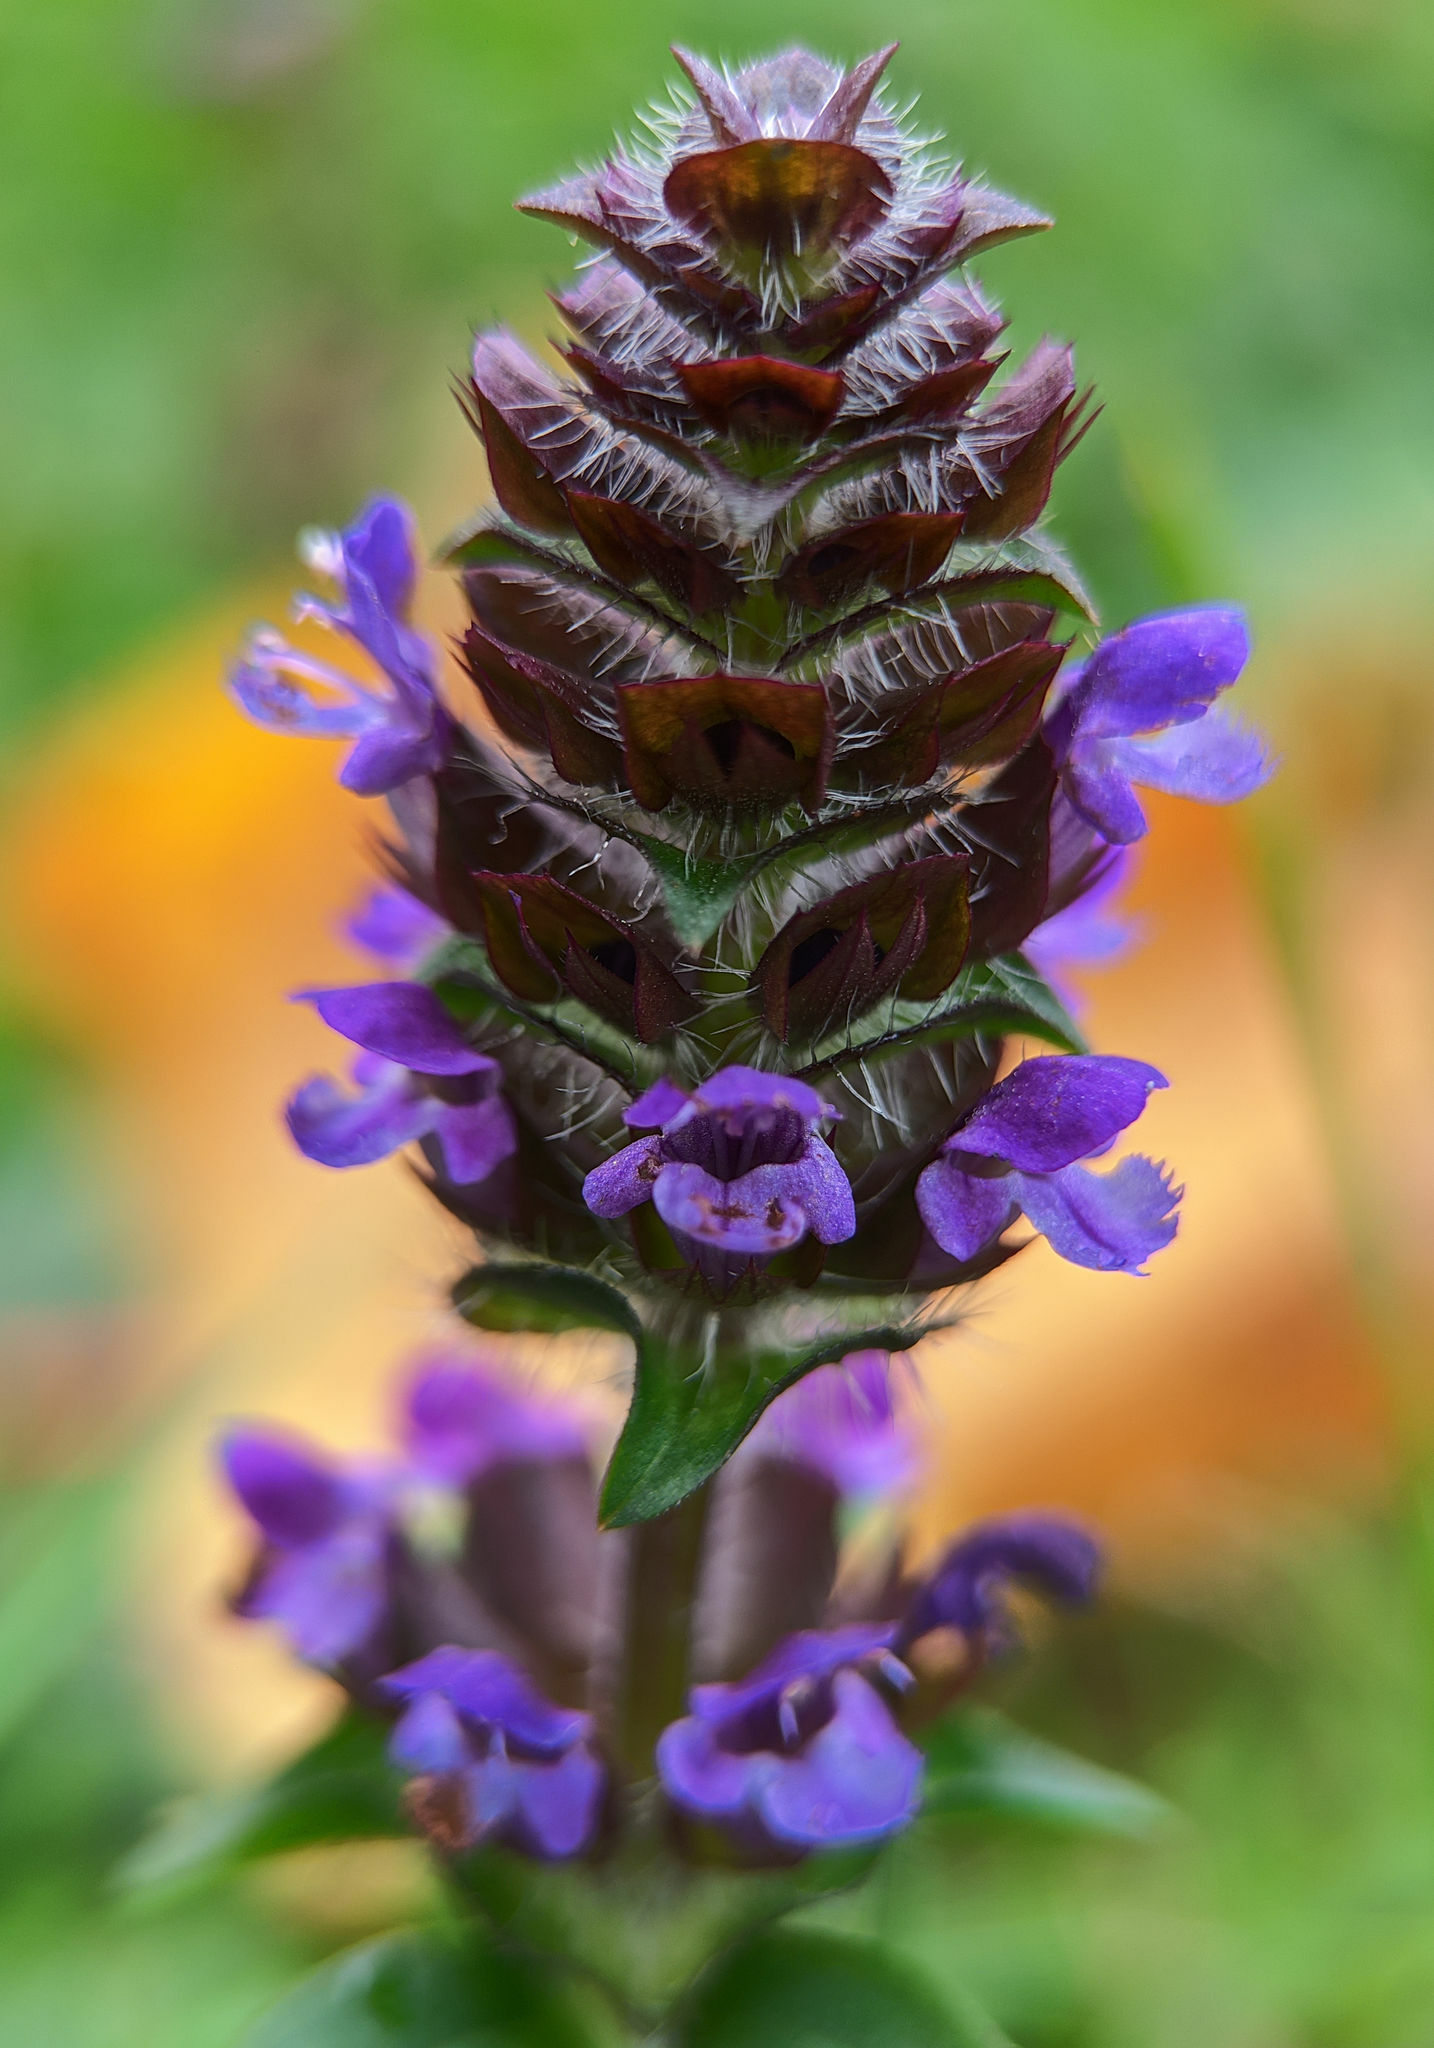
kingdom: Plantae
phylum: Tracheophyta
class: Magnoliopsida
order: Lamiales
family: Lamiaceae
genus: Prunella
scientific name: Prunella vulgaris
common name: Heal-all
